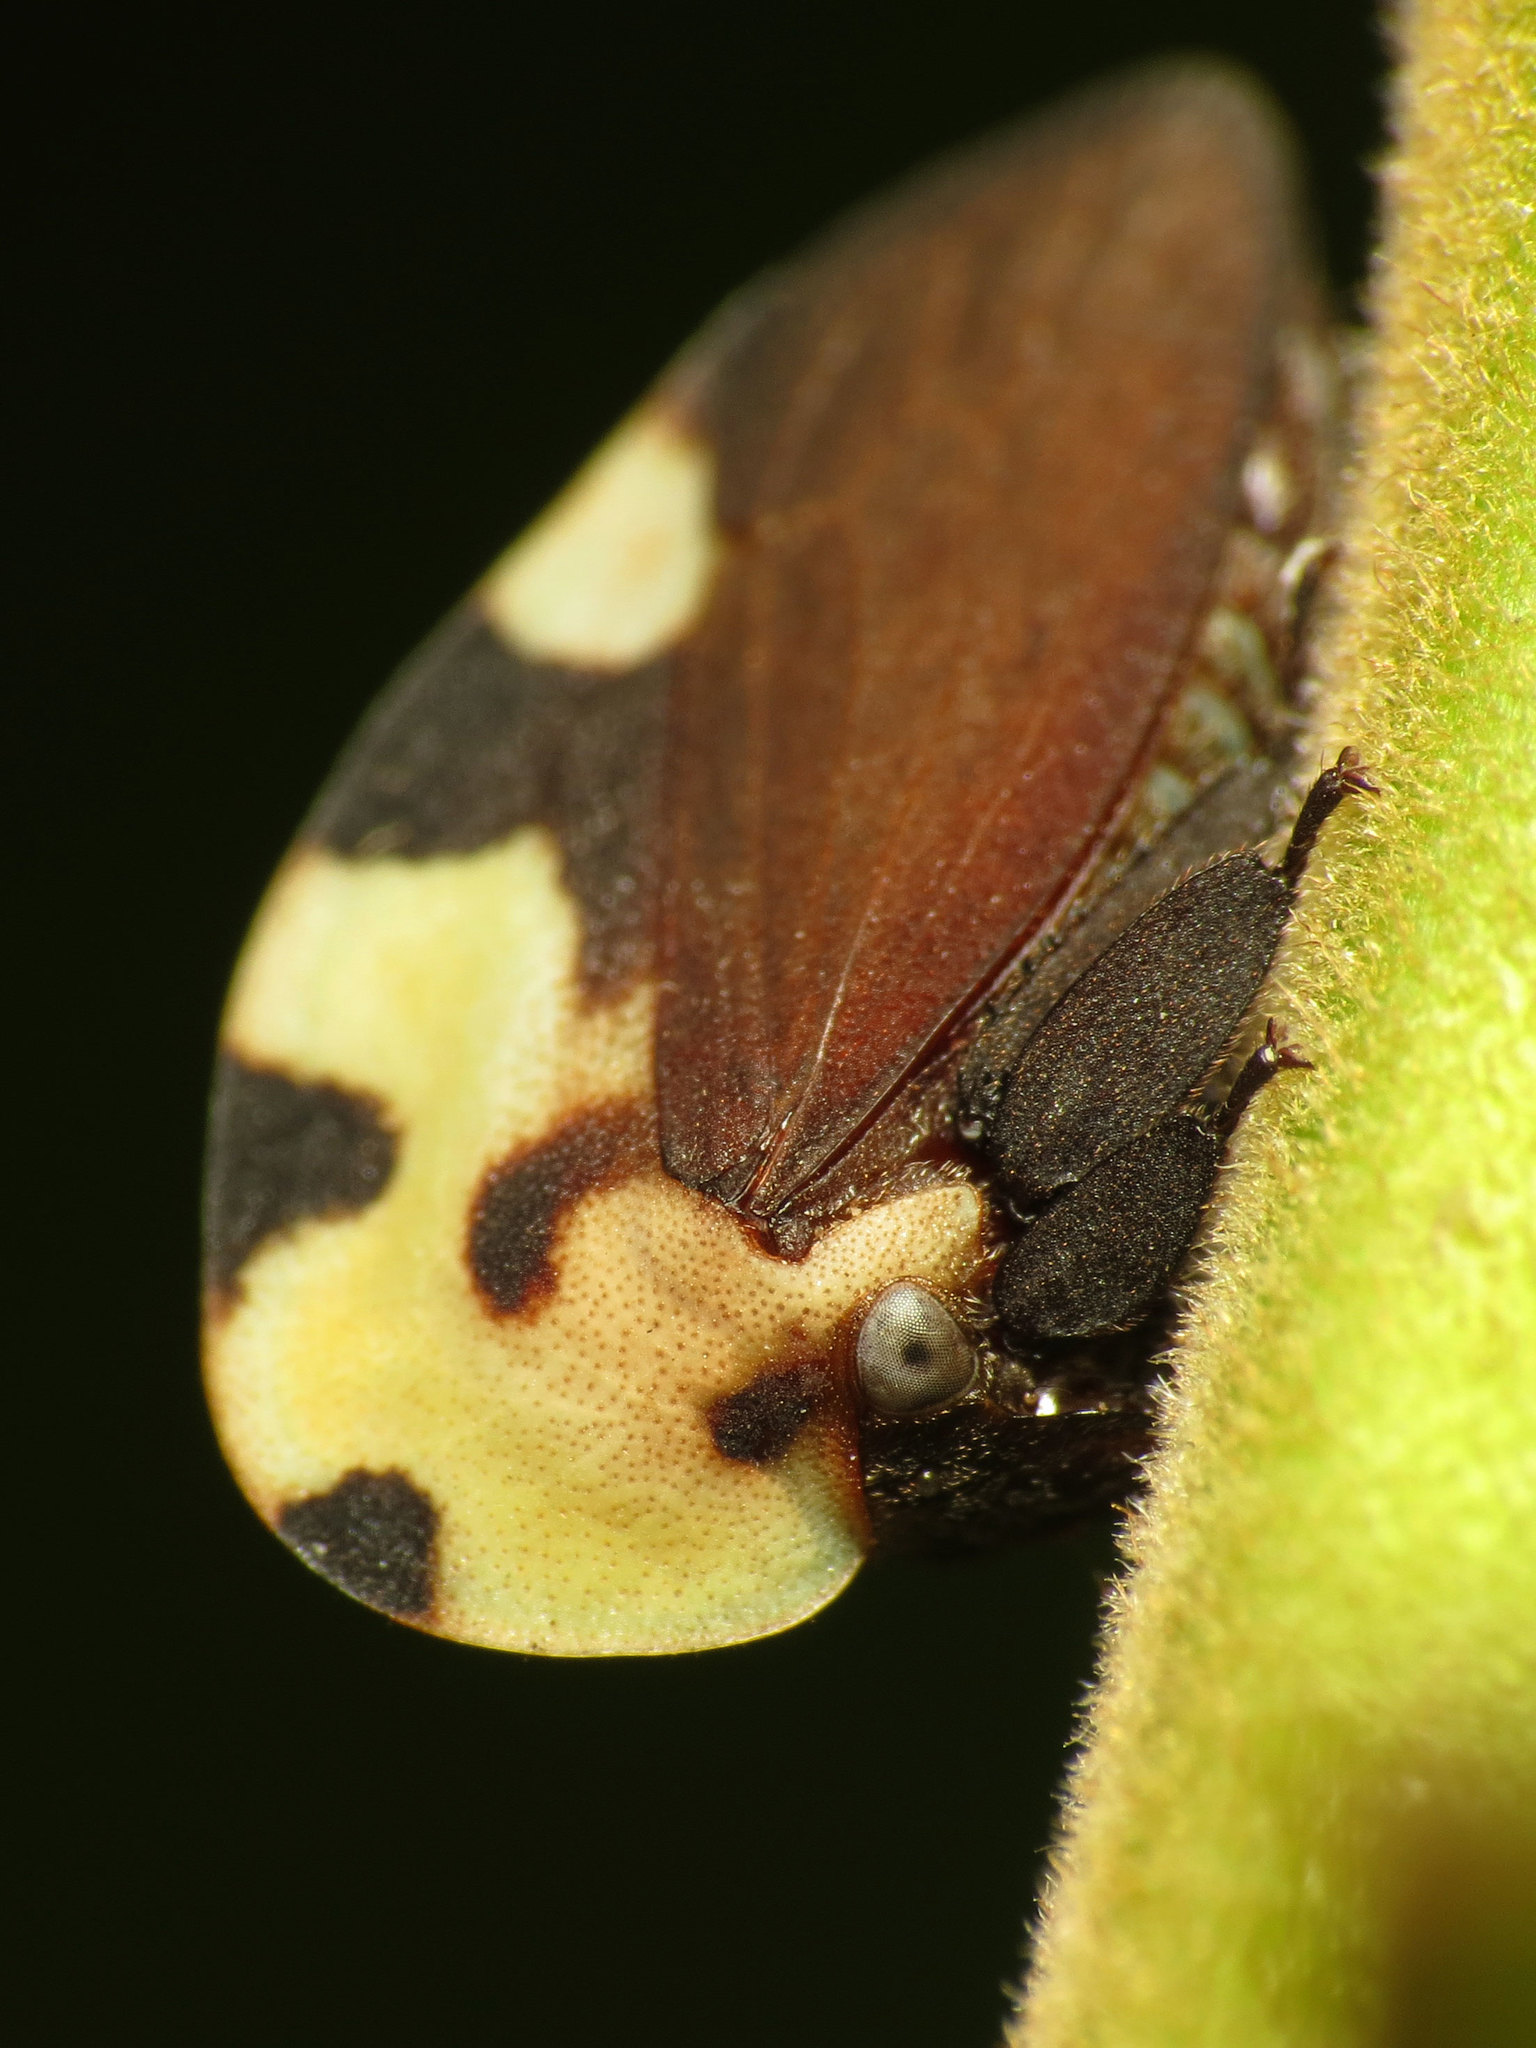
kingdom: Animalia
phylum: Arthropoda
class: Insecta
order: Hemiptera
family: Membracidae
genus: Membracis
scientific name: Membracis mexicana
